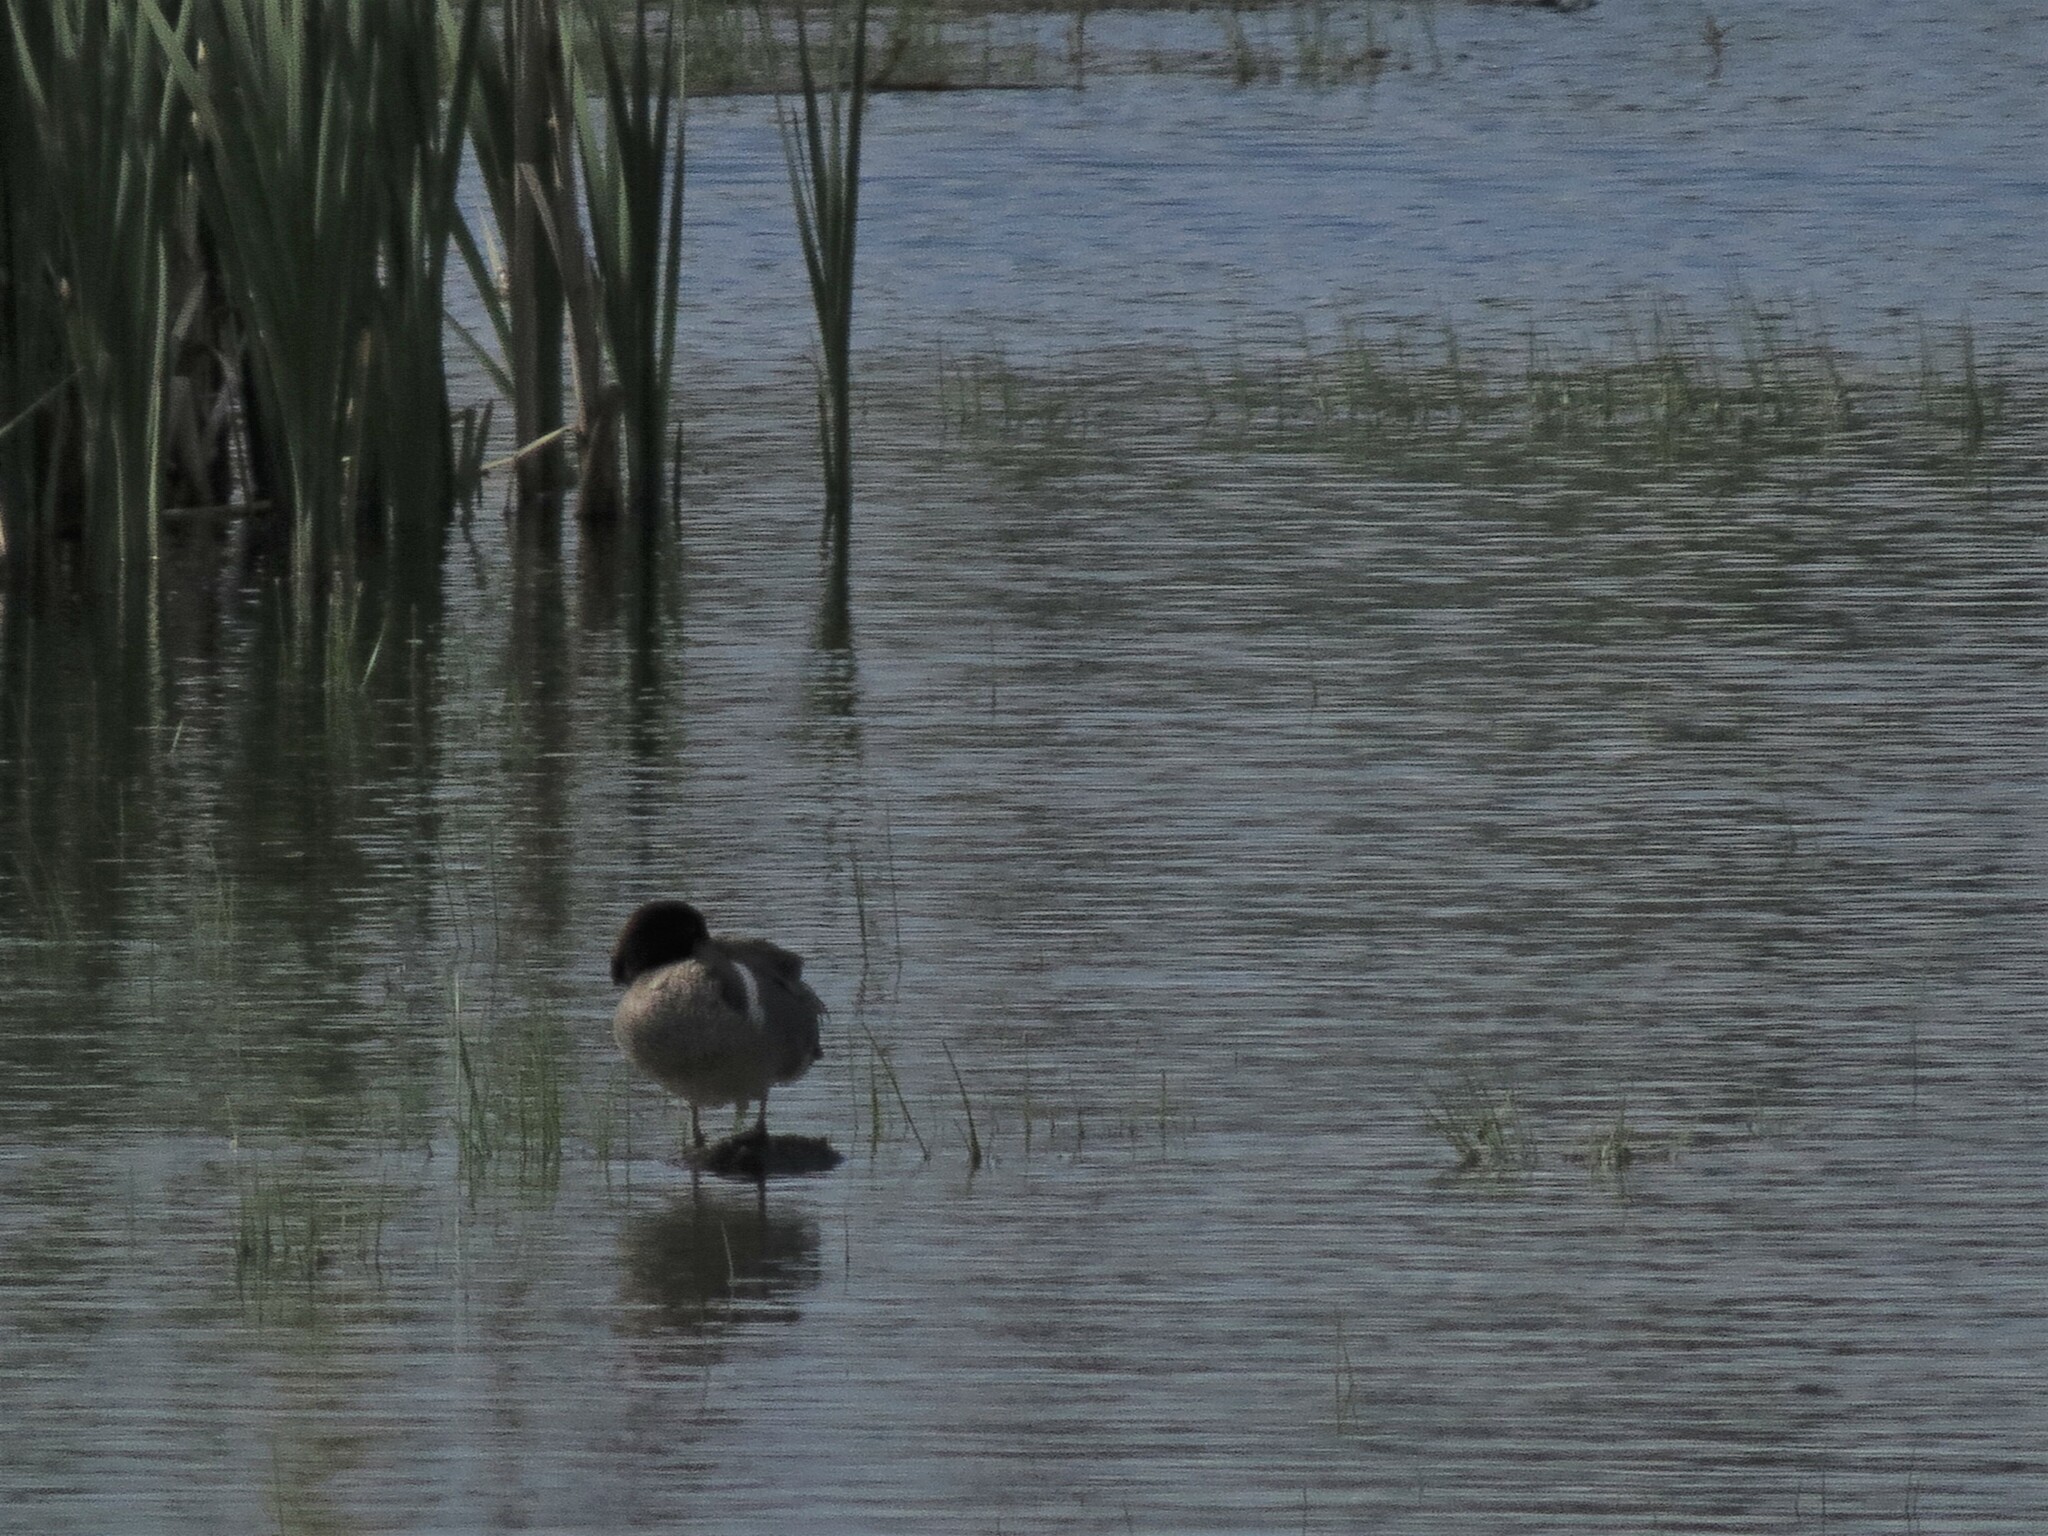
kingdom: Animalia
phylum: Chordata
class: Aves
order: Anseriformes
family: Anatidae
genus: Anas
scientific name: Anas crecca
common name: Eurasian teal
